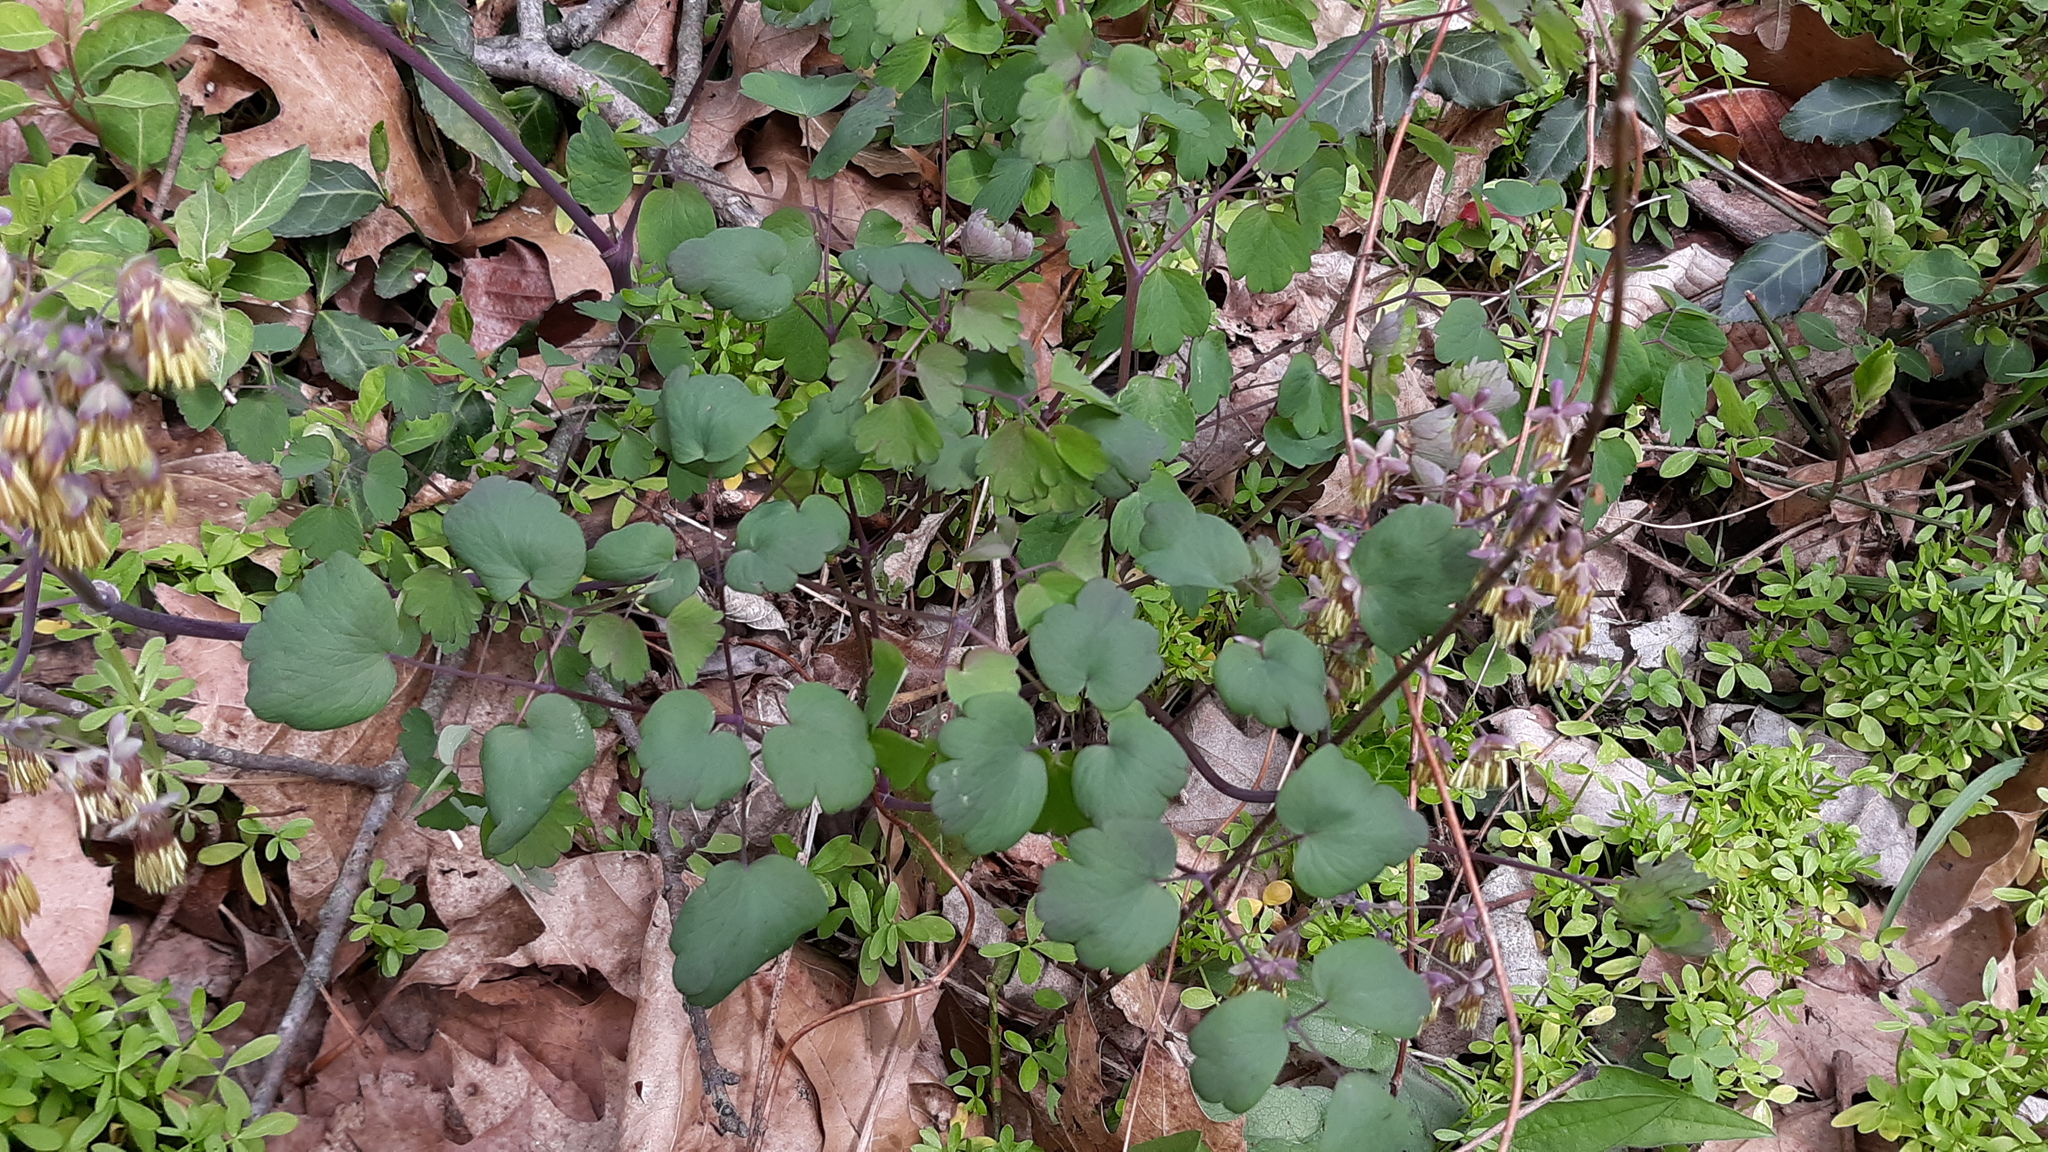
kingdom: Plantae
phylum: Tracheophyta
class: Magnoliopsida
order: Ranunculales
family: Ranunculaceae
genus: Thalictrum
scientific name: Thalictrum dioicum
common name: Early meadow-rue
